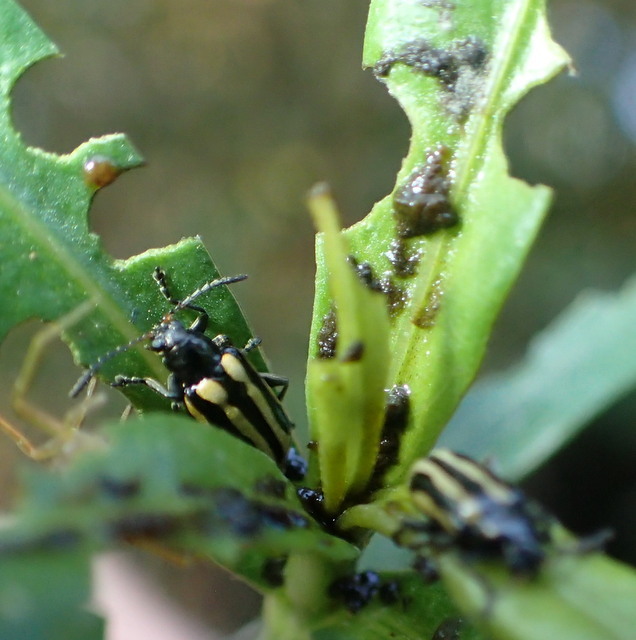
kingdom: Animalia
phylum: Arthropoda
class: Insecta
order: Coleoptera
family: Chrysomelidae
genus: Agasicles
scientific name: Agasicles hygrophila
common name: Alligatorweed flea beetle
